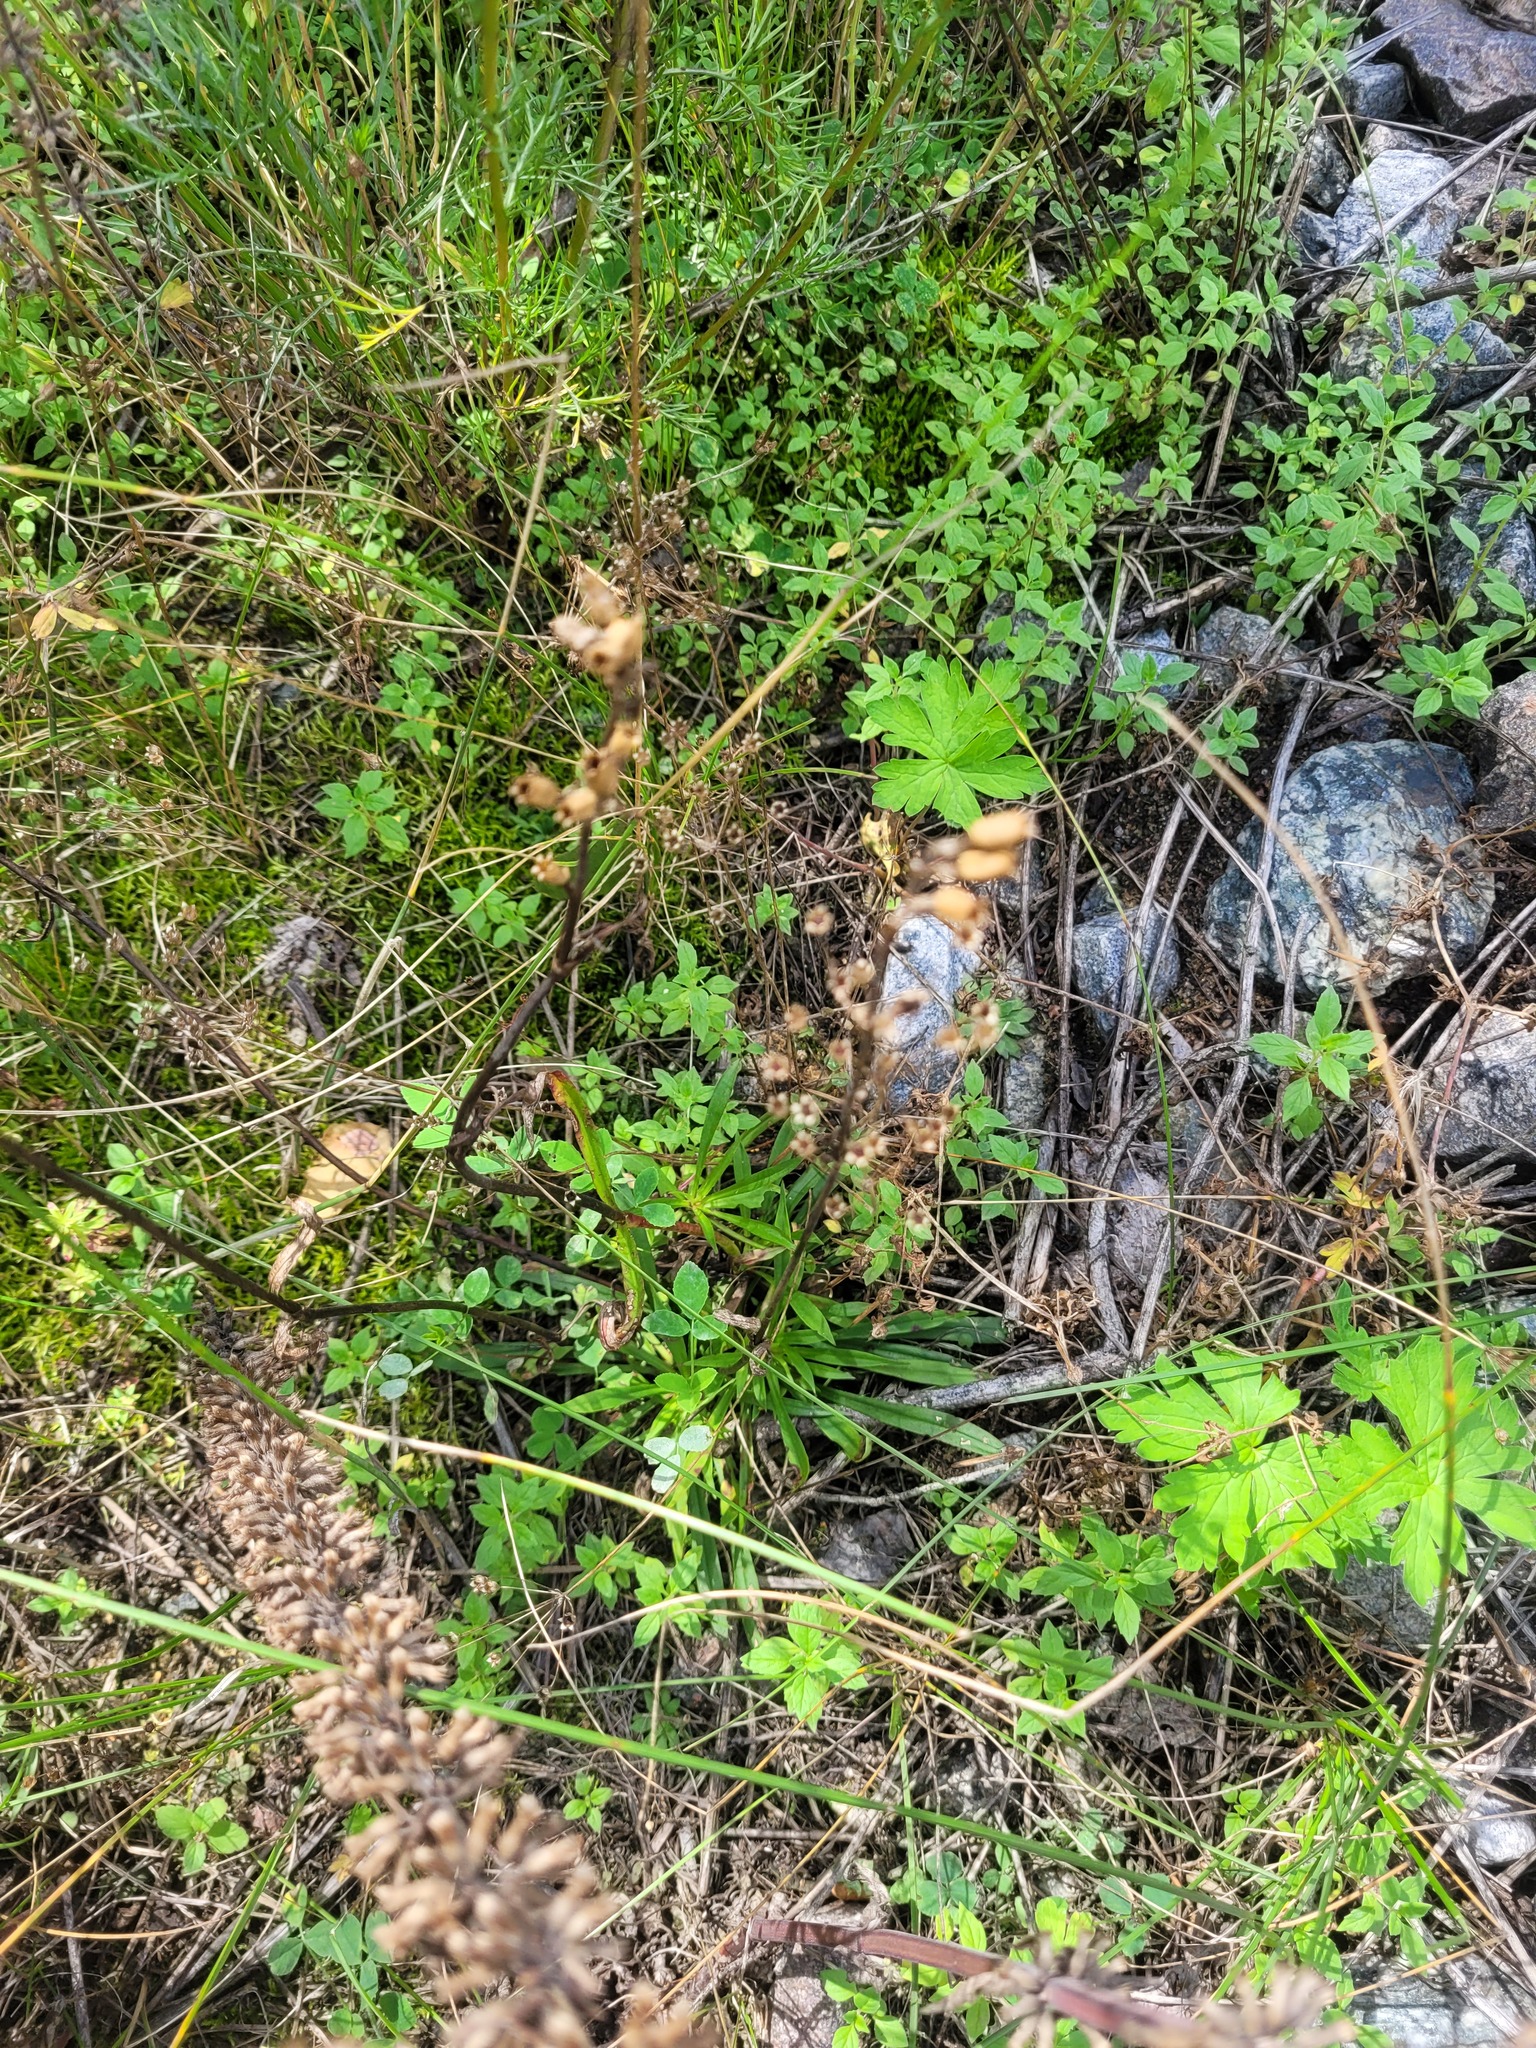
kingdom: Plantae
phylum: Tracheophyta
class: Magnoliopsida
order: Caryophyllales
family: Caryophyllaceae
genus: Viscaria
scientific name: Viscaria vulgaris
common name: Clammy campion
